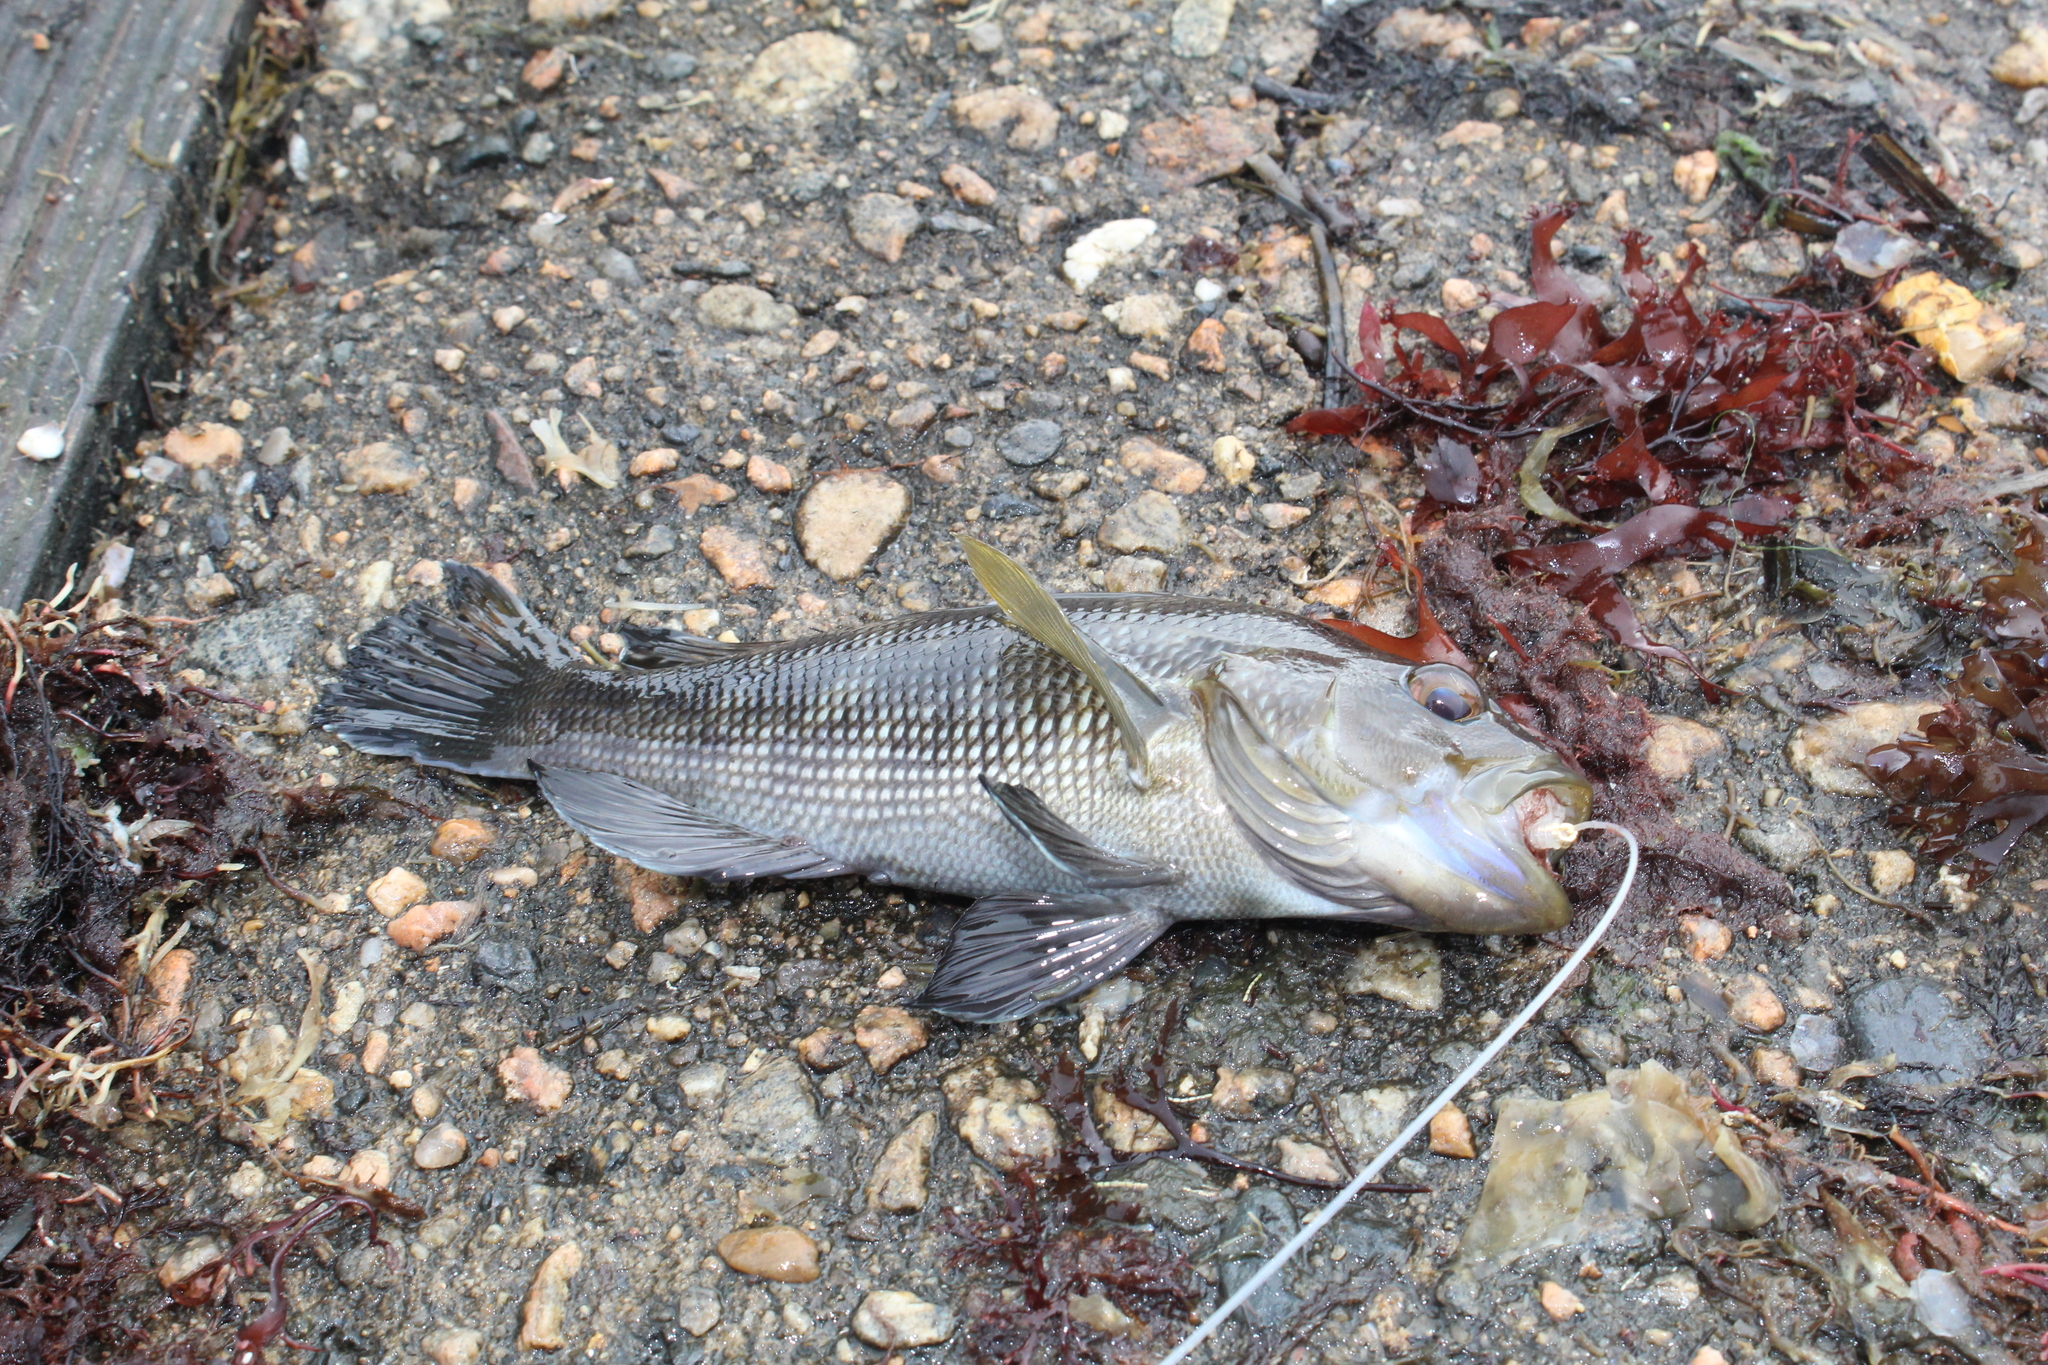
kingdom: Animalia
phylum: Chordata
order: Perciformes
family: Serranidae
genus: Centropristis
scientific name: Centropristis striata
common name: Black sea bass
